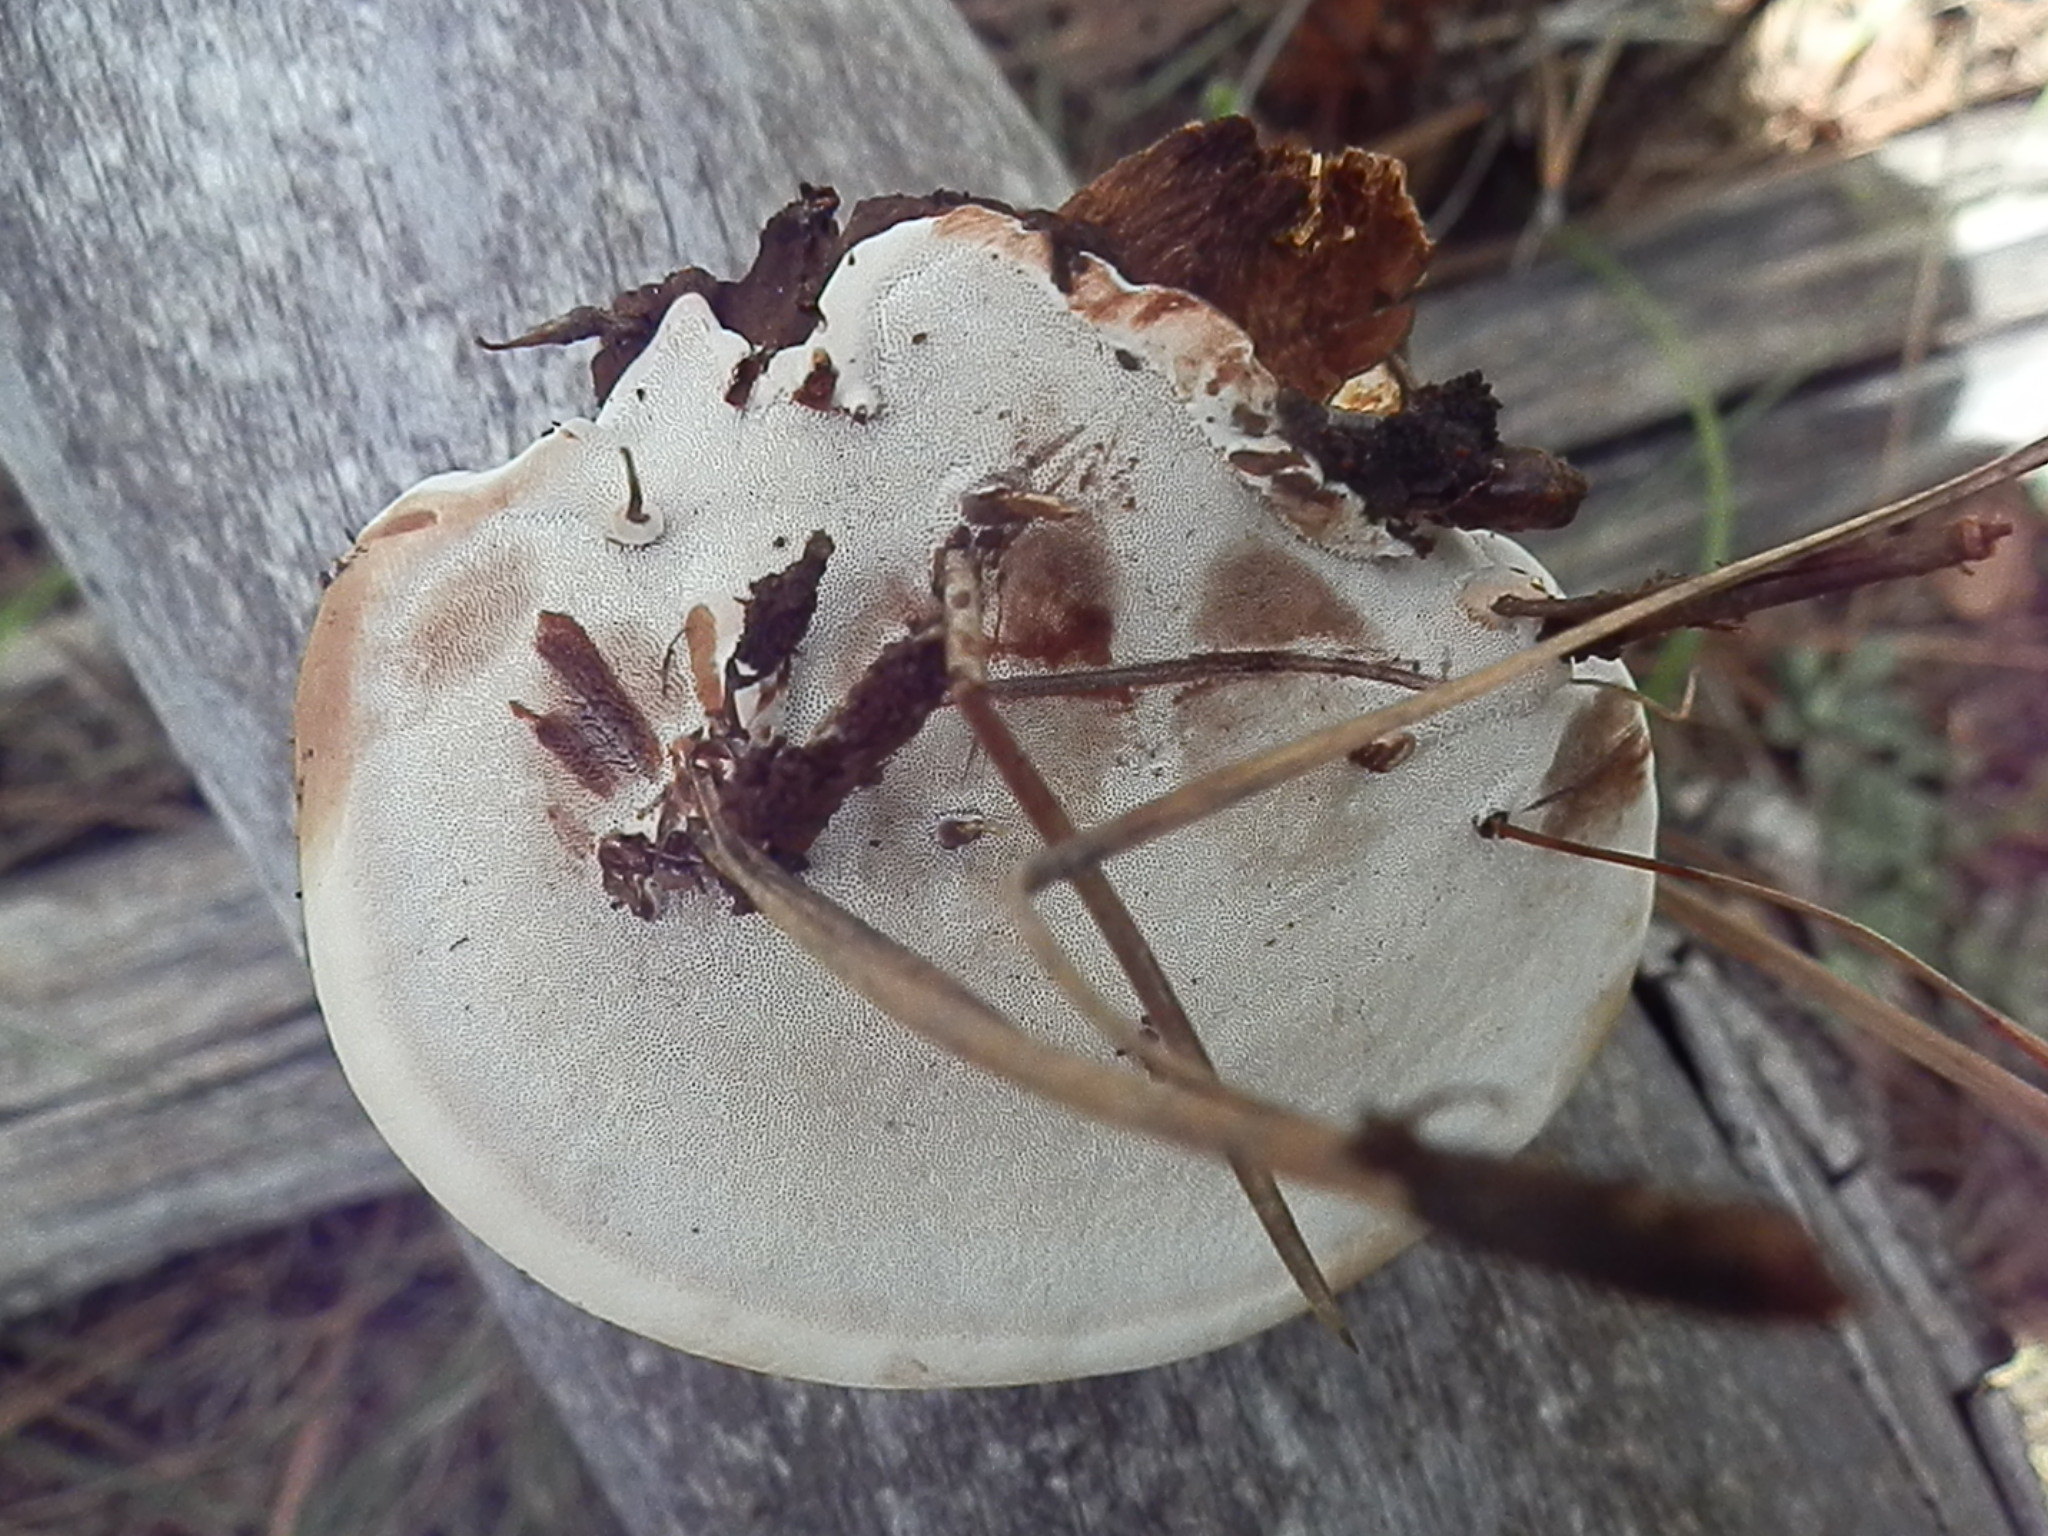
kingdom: Fungi
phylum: Basidiomycota
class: Agaricomycetes
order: Polyporales
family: Polyporaceae
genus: Ganoderma
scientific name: Ganoderma applanatum
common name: Artist's bracket
